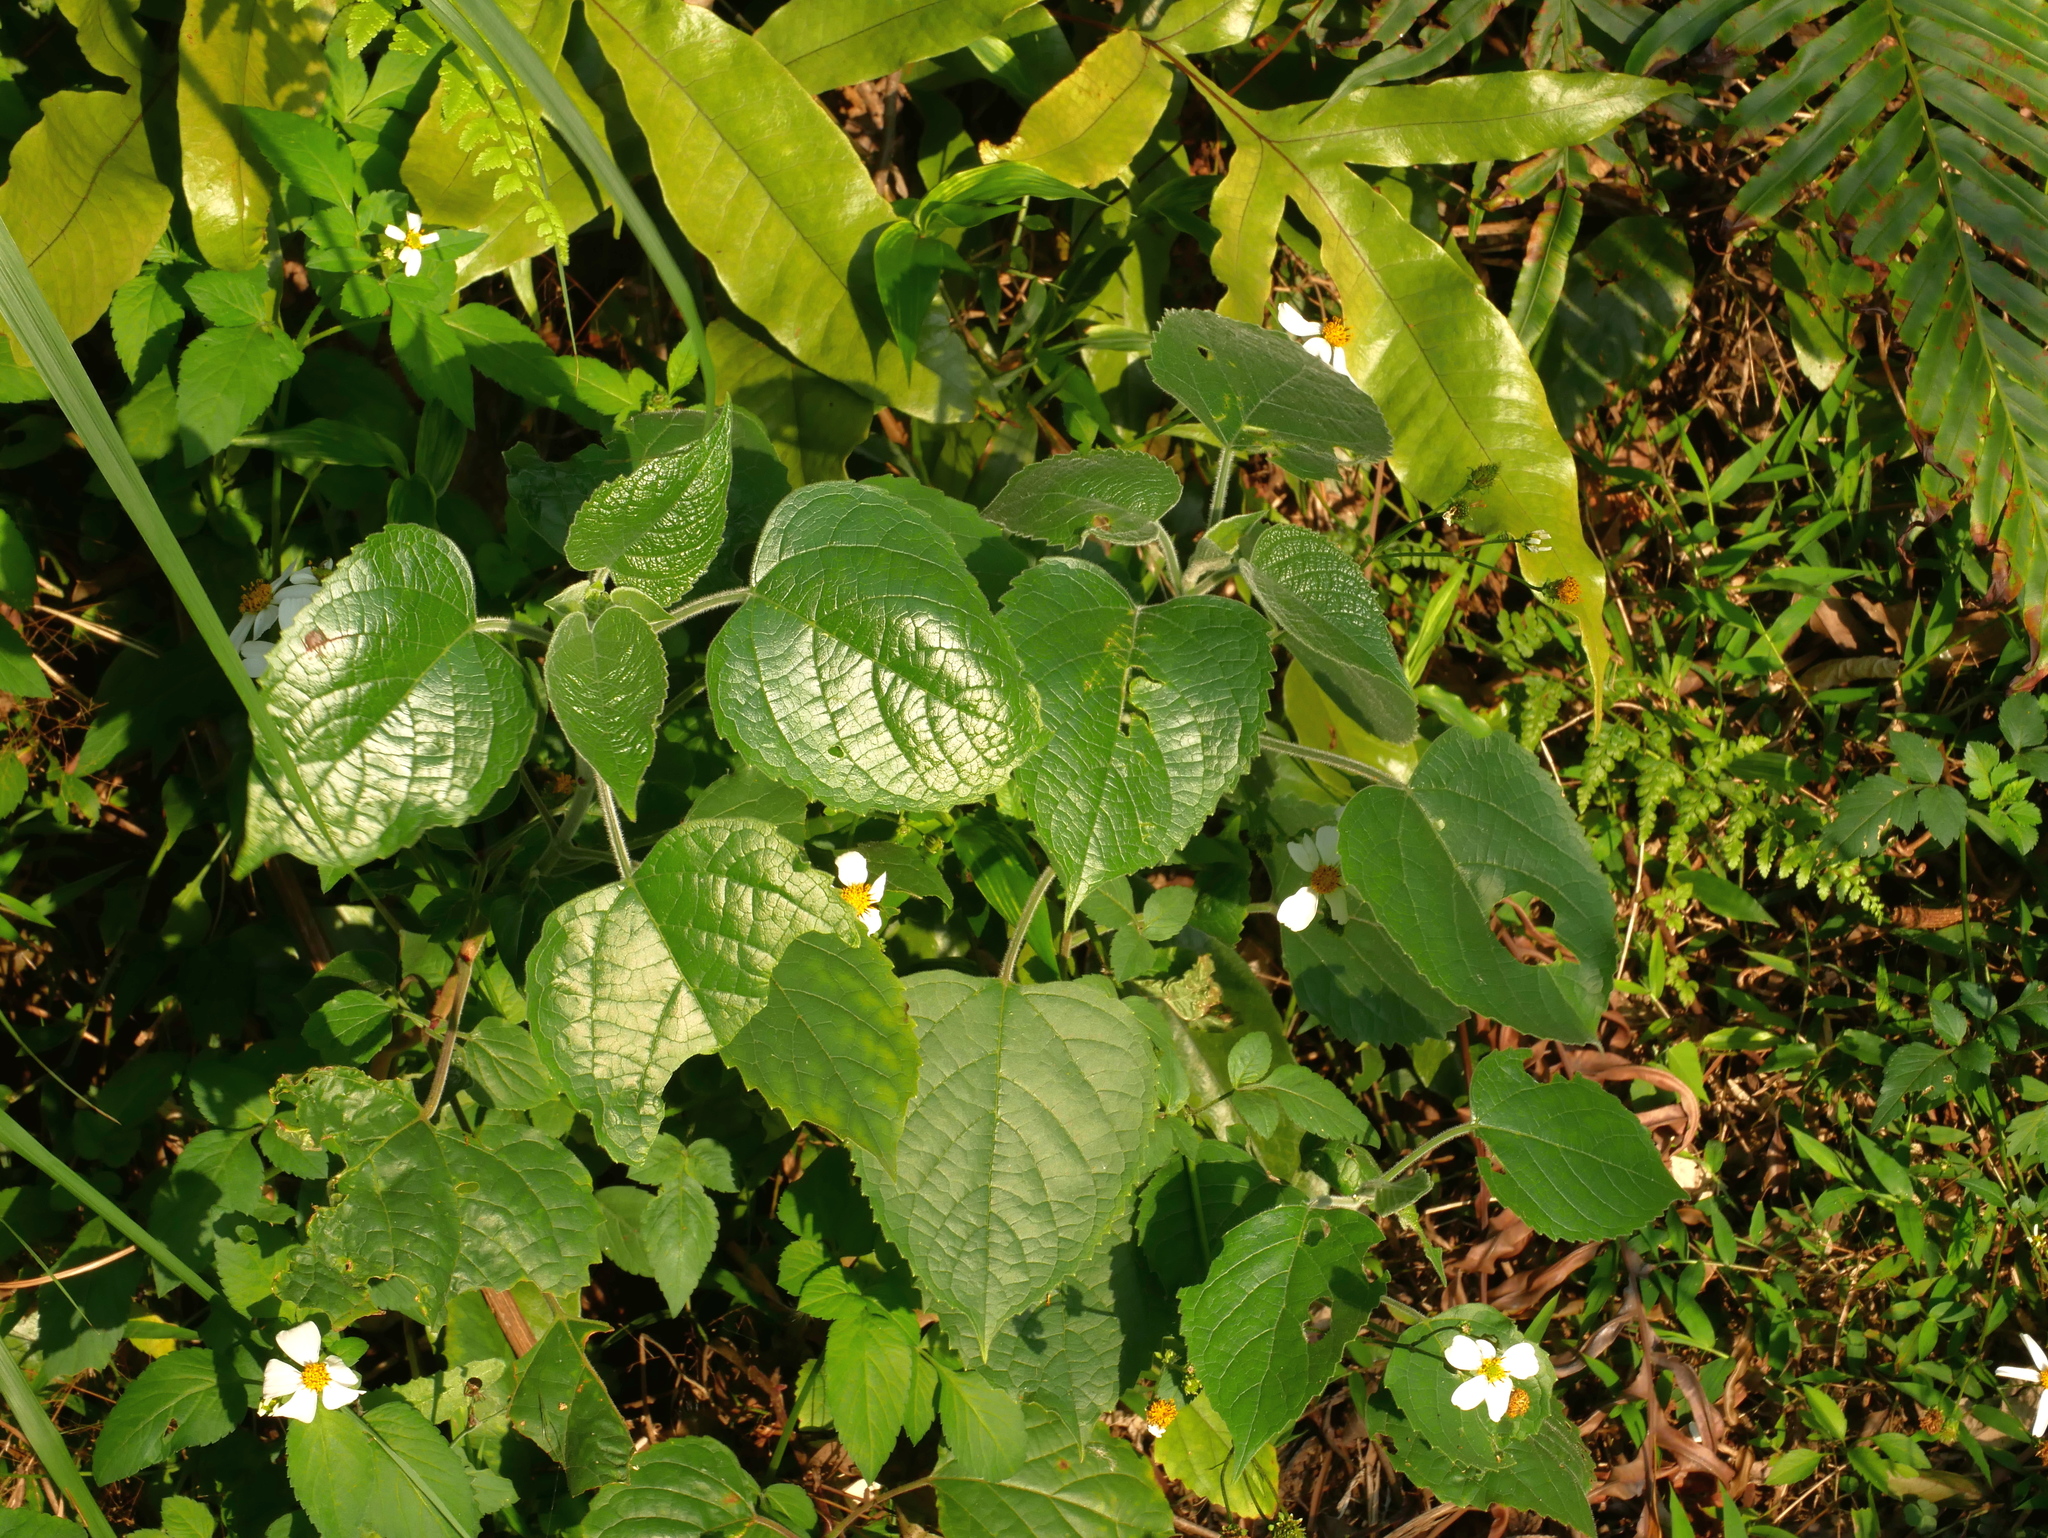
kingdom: Plantae
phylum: Tracheophyta
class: Magnoliopsida
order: Lamiales
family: Lamiaceae
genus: Clerodendrum
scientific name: Clerodendrum canescens
